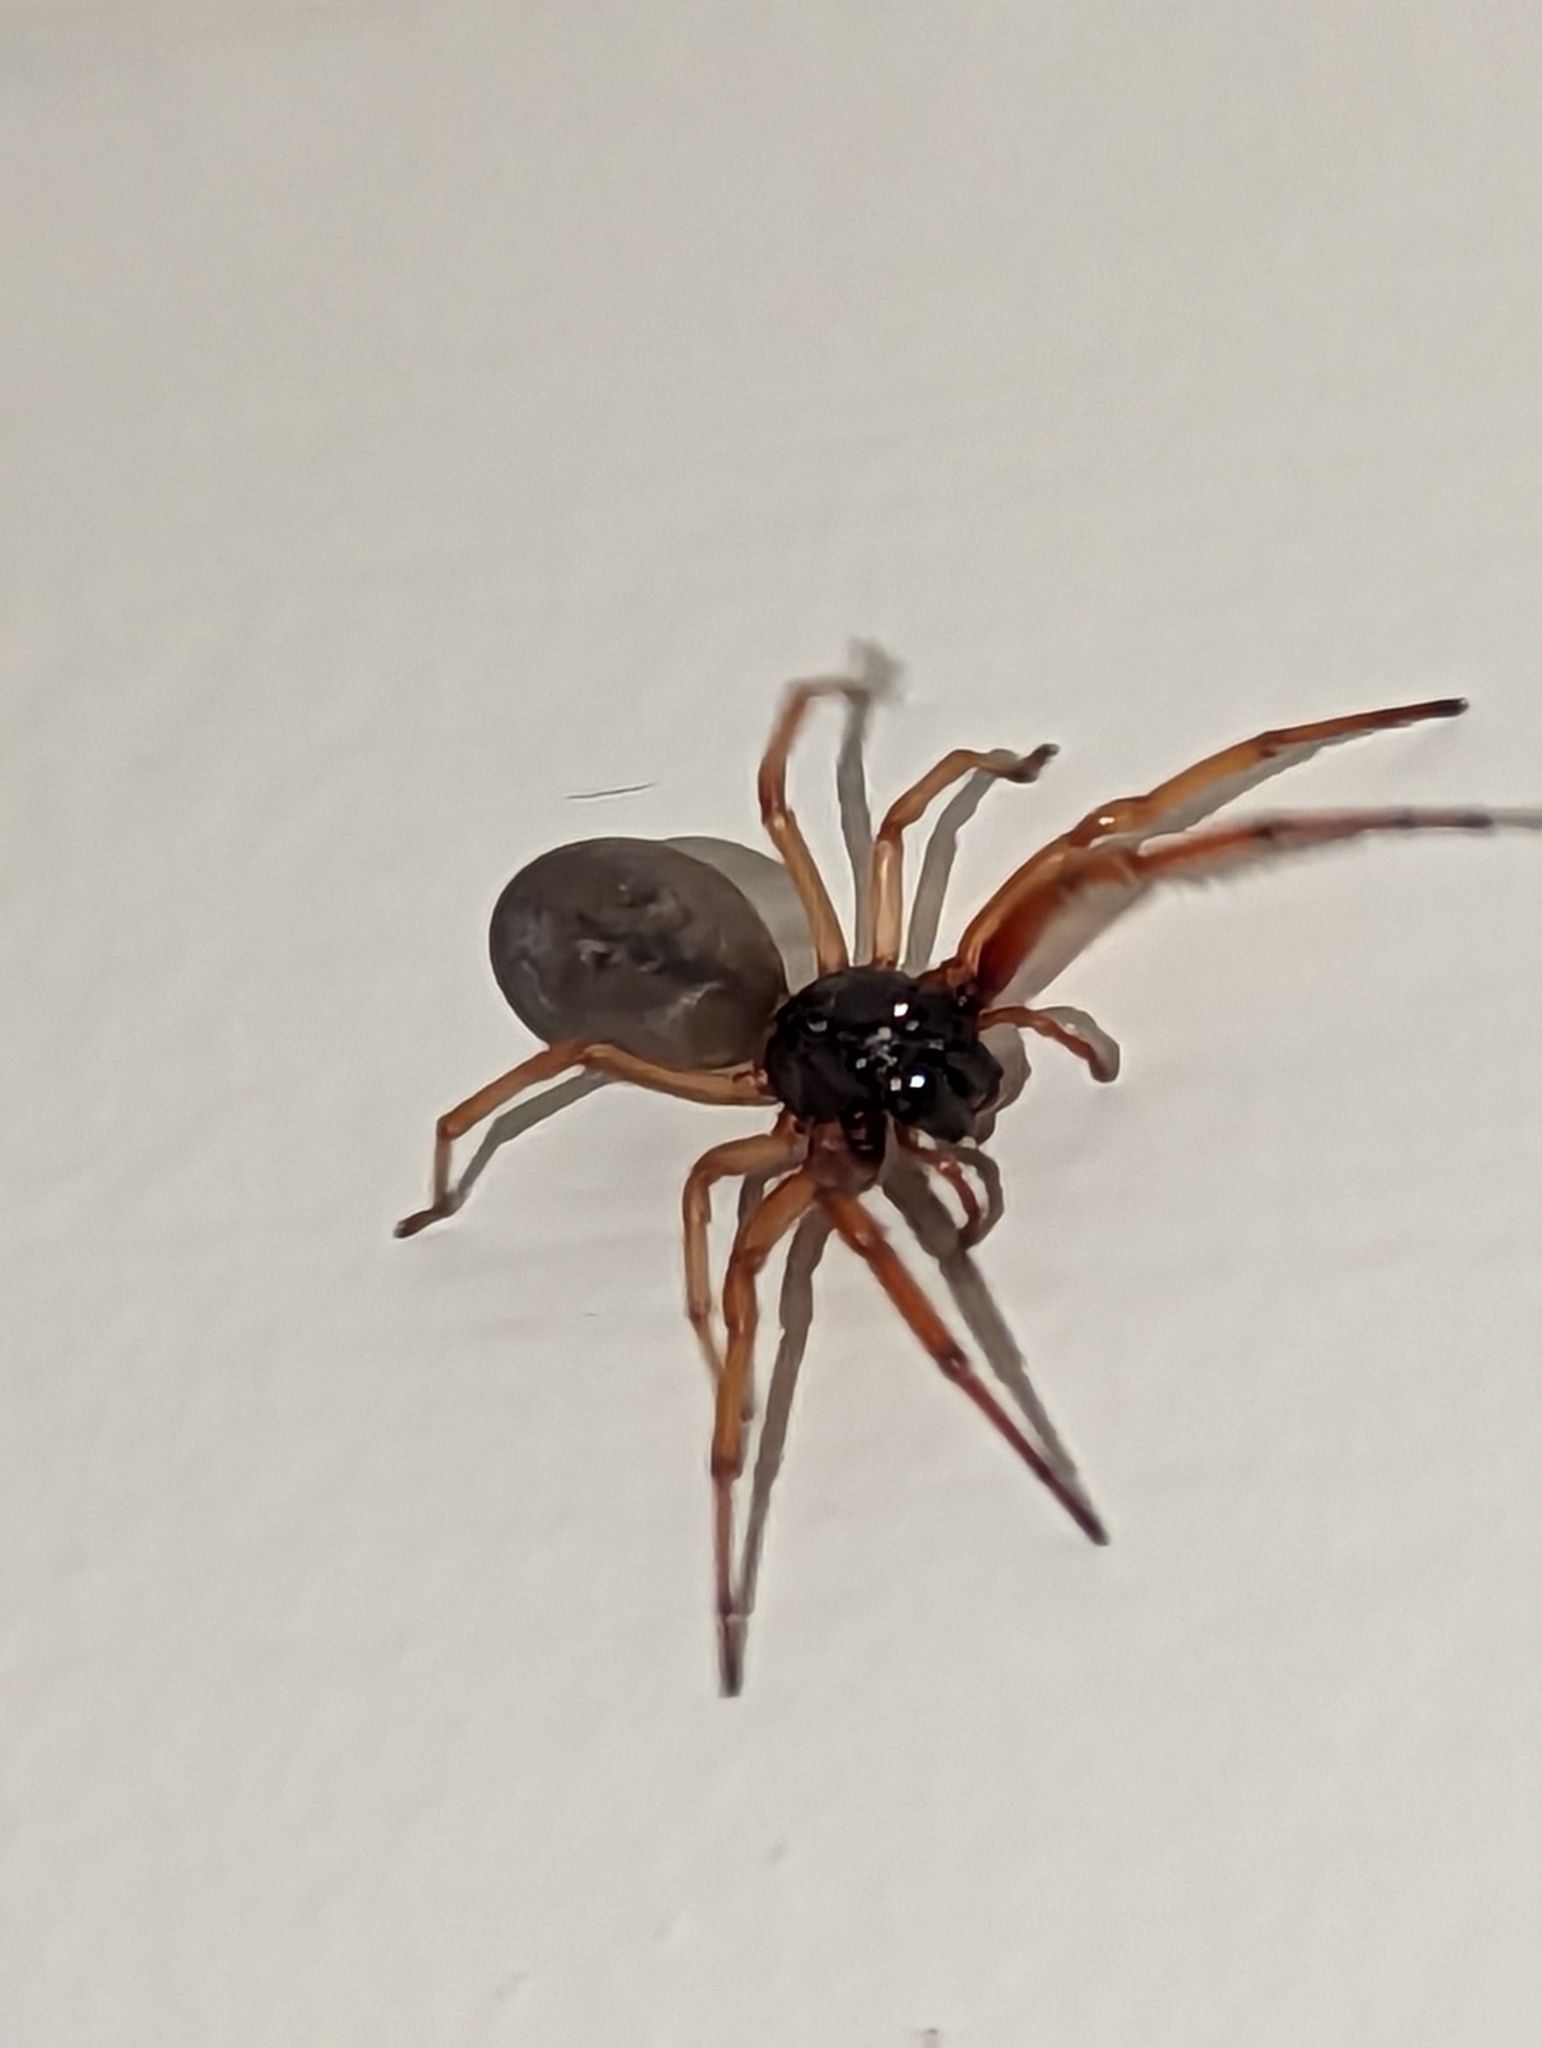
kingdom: Animalia
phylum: Arthropoda
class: Arachnida
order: Araneae
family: Trachelidae
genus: Trachelas
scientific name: Trachelas tranquillus
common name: Broad-faced sac spider
